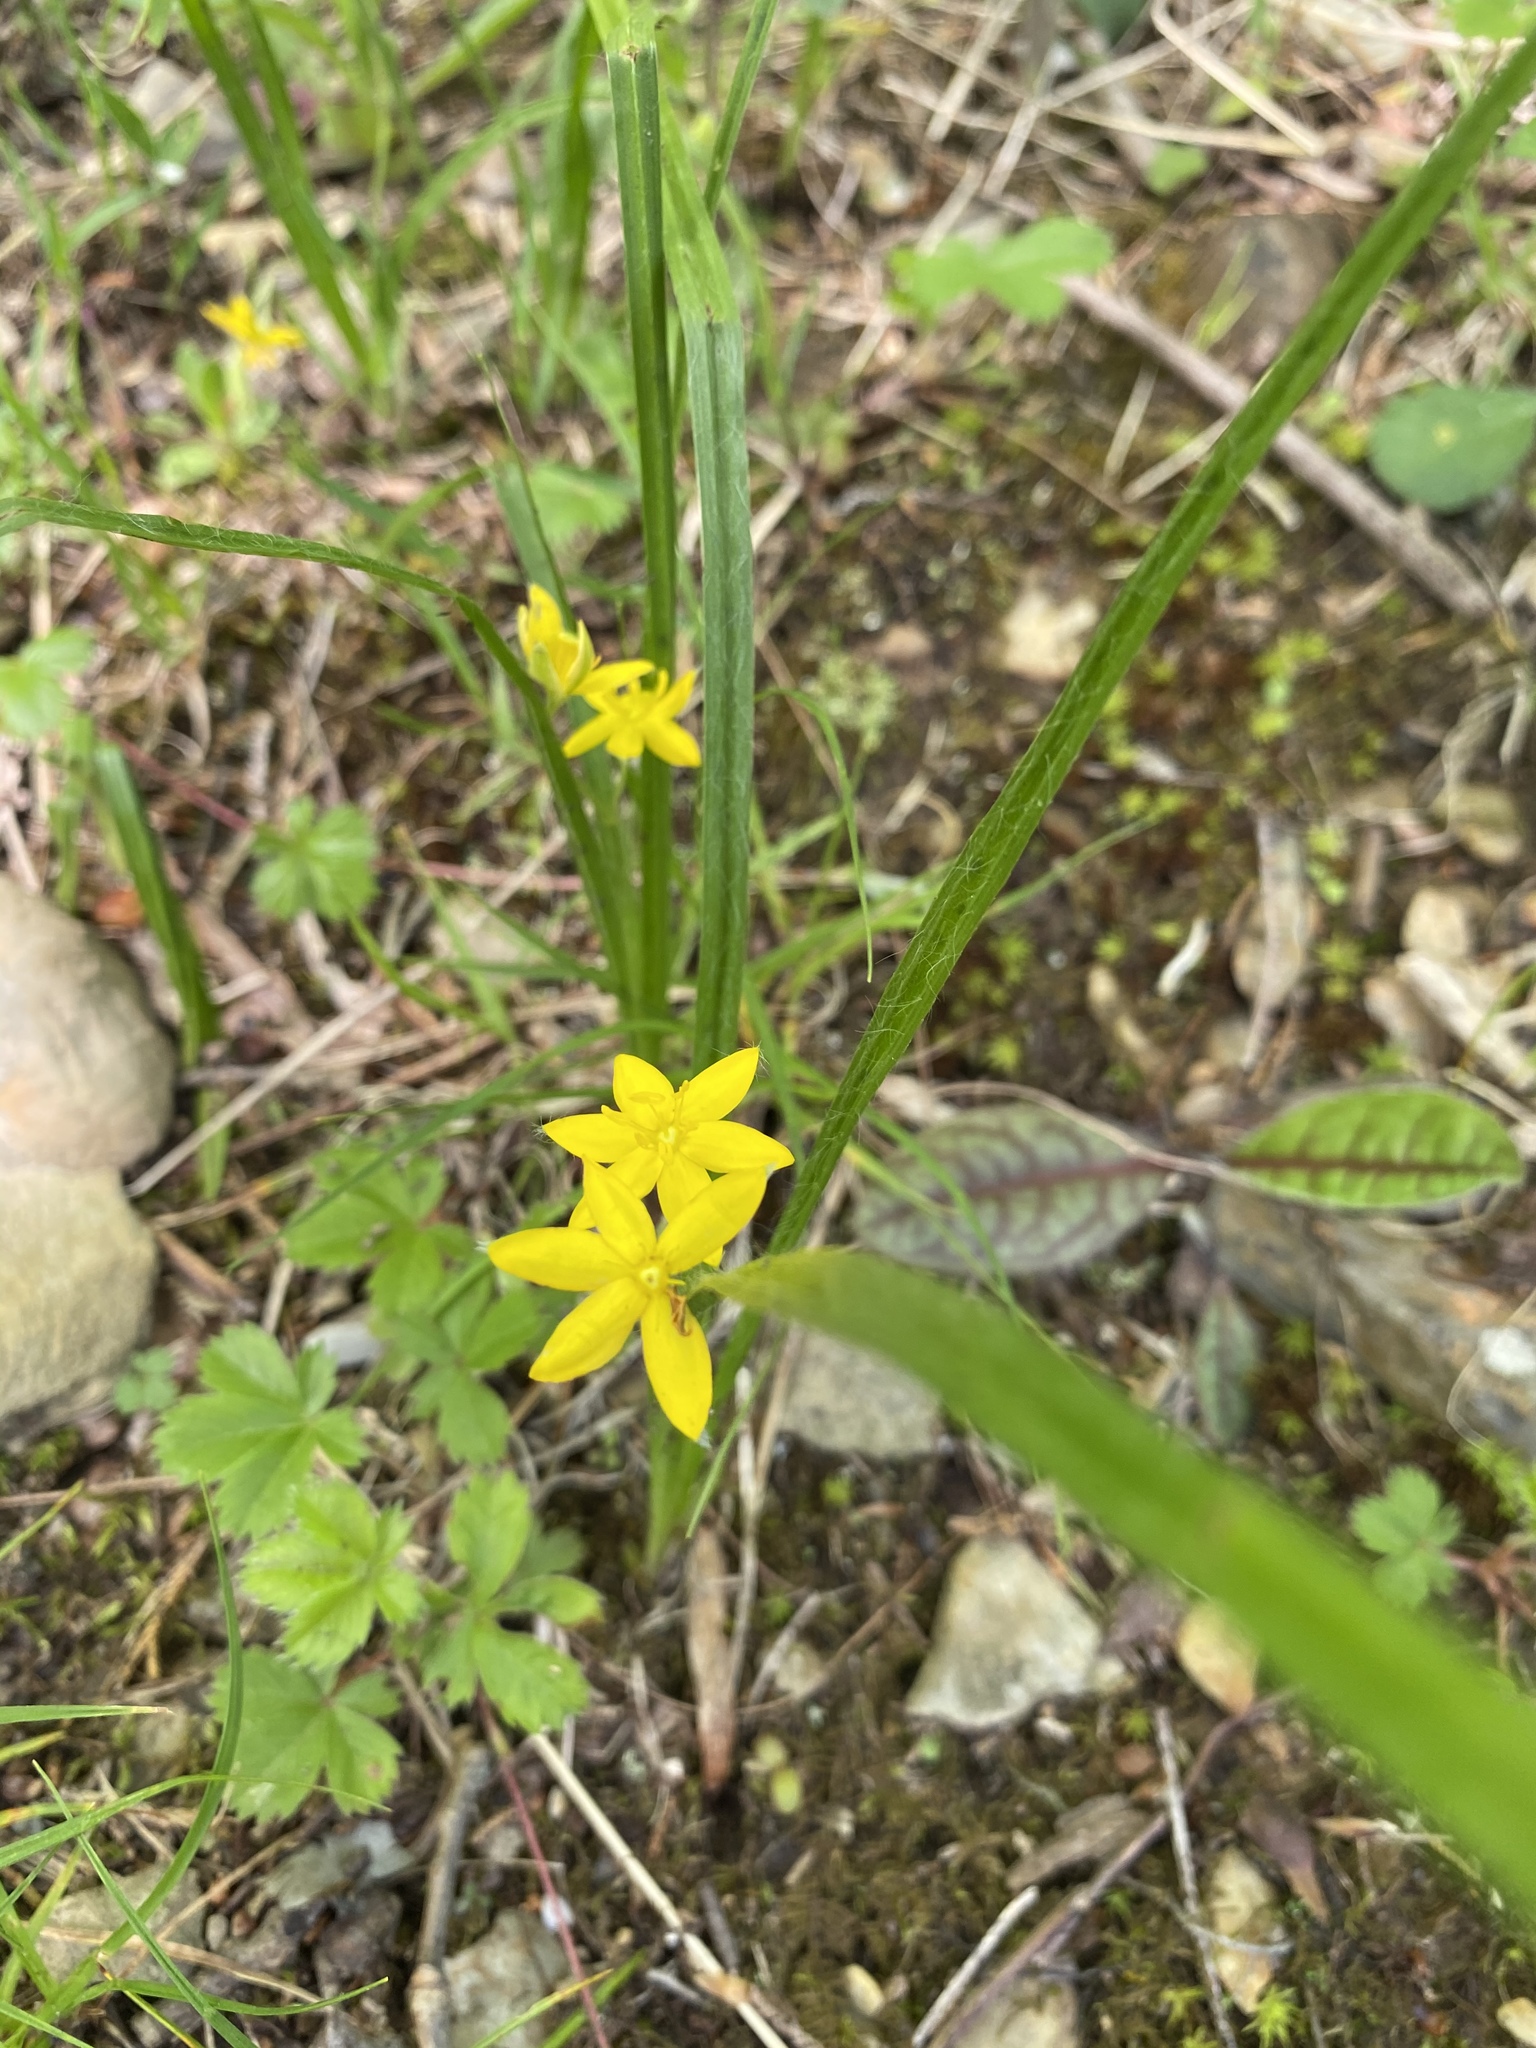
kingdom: Plantae
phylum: Tracheophyta
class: Liliopsida
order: Asparagales
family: Hypoxidaceae
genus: Hypoxis
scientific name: Hypoxis hirsuta
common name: Common goldstar
